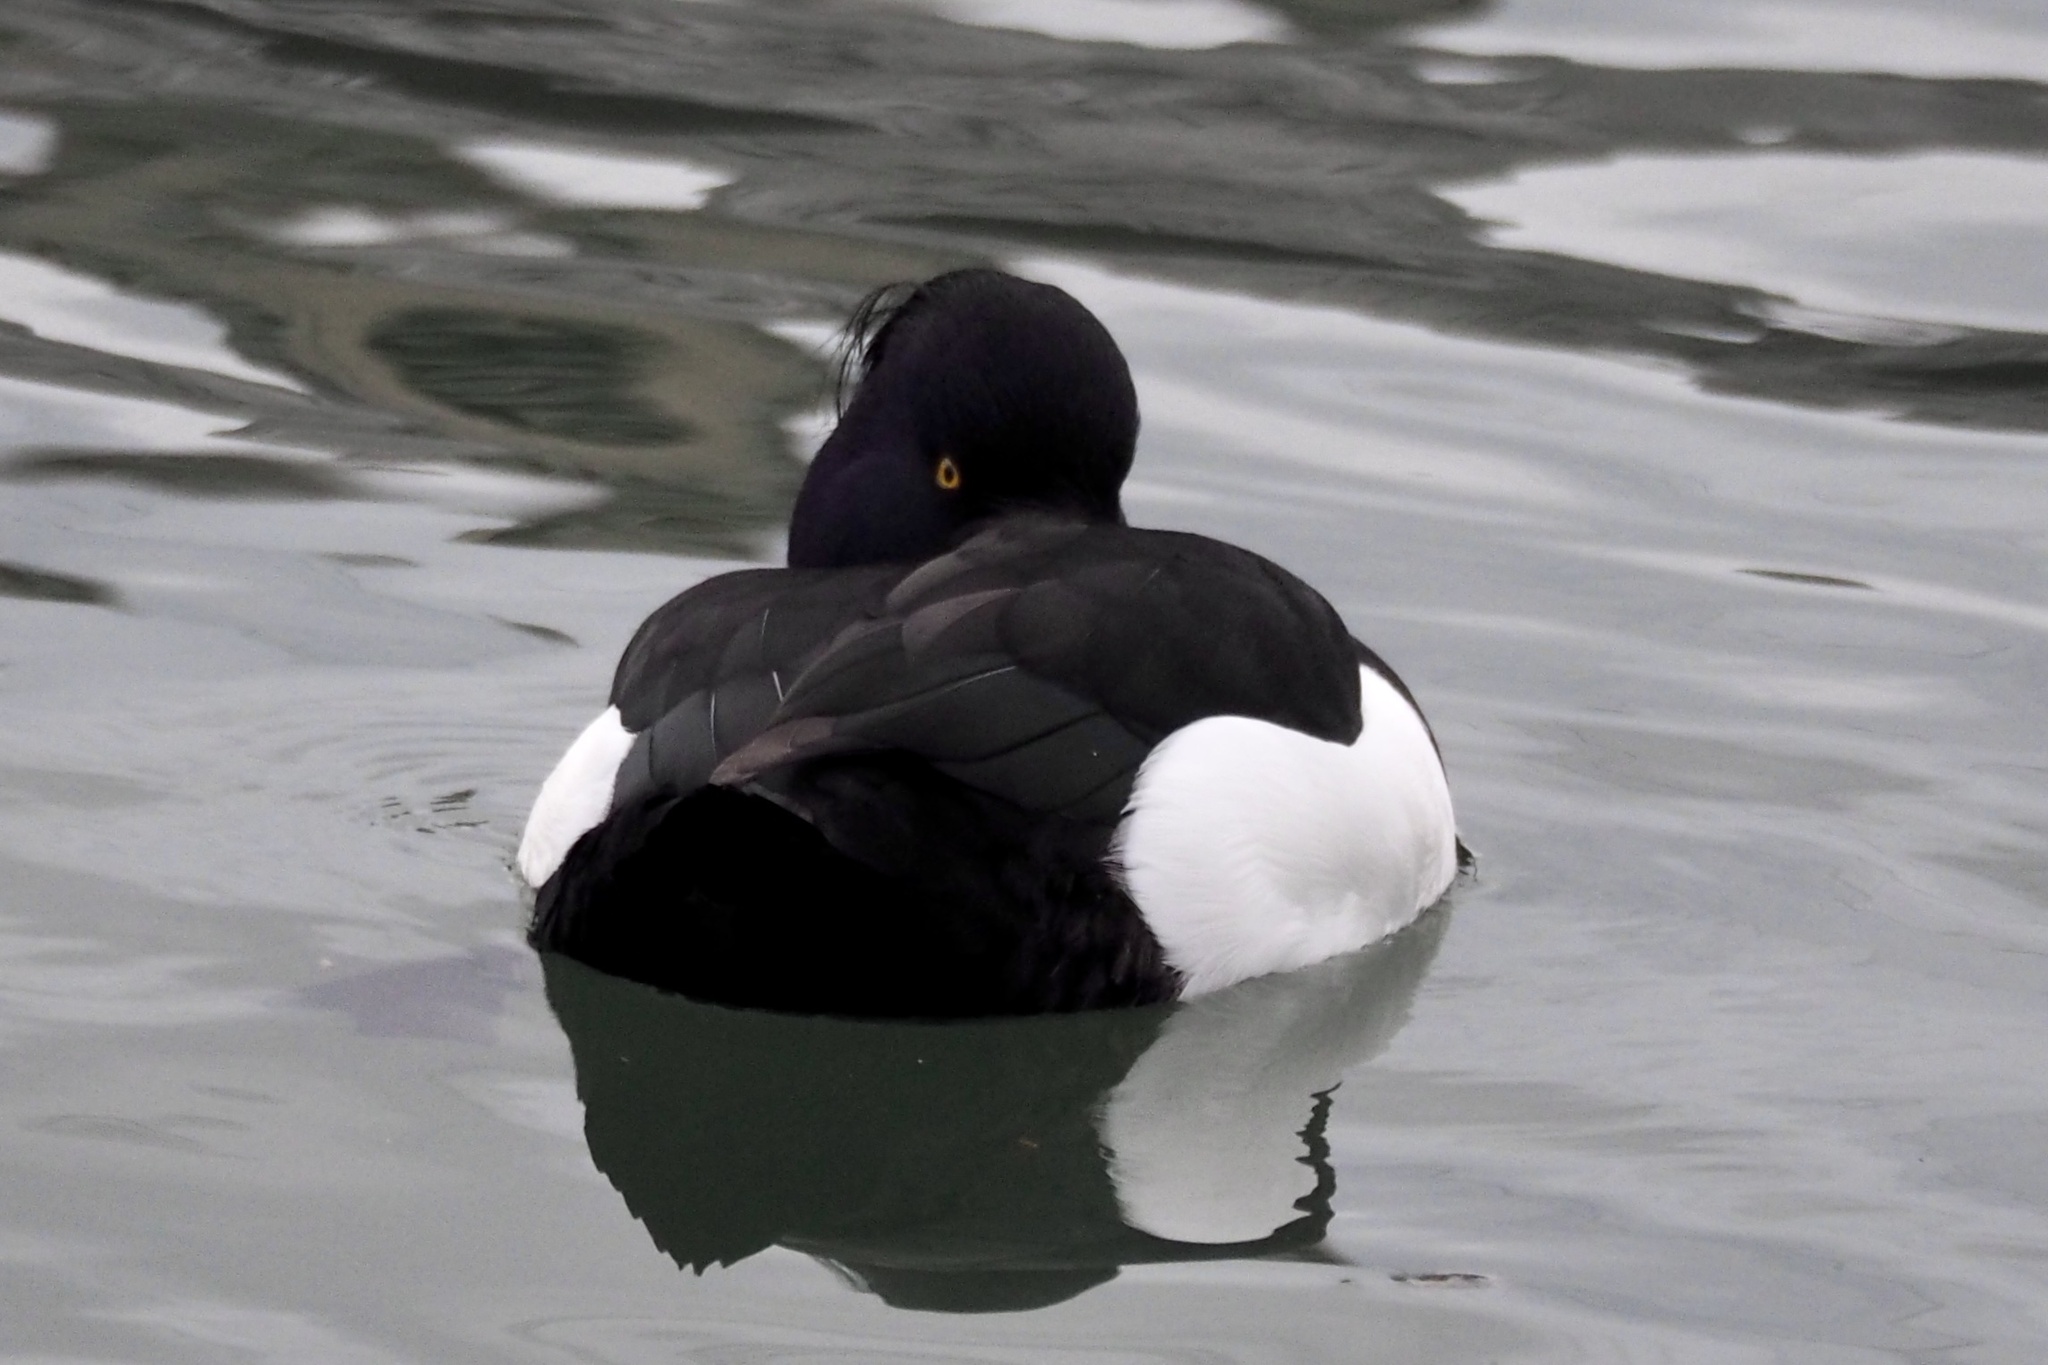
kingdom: Animalia
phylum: Chordata
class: Aves
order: Anseriformes
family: Anatidae
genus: Aythya
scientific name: Aythya fuligula
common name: Tufted duck
